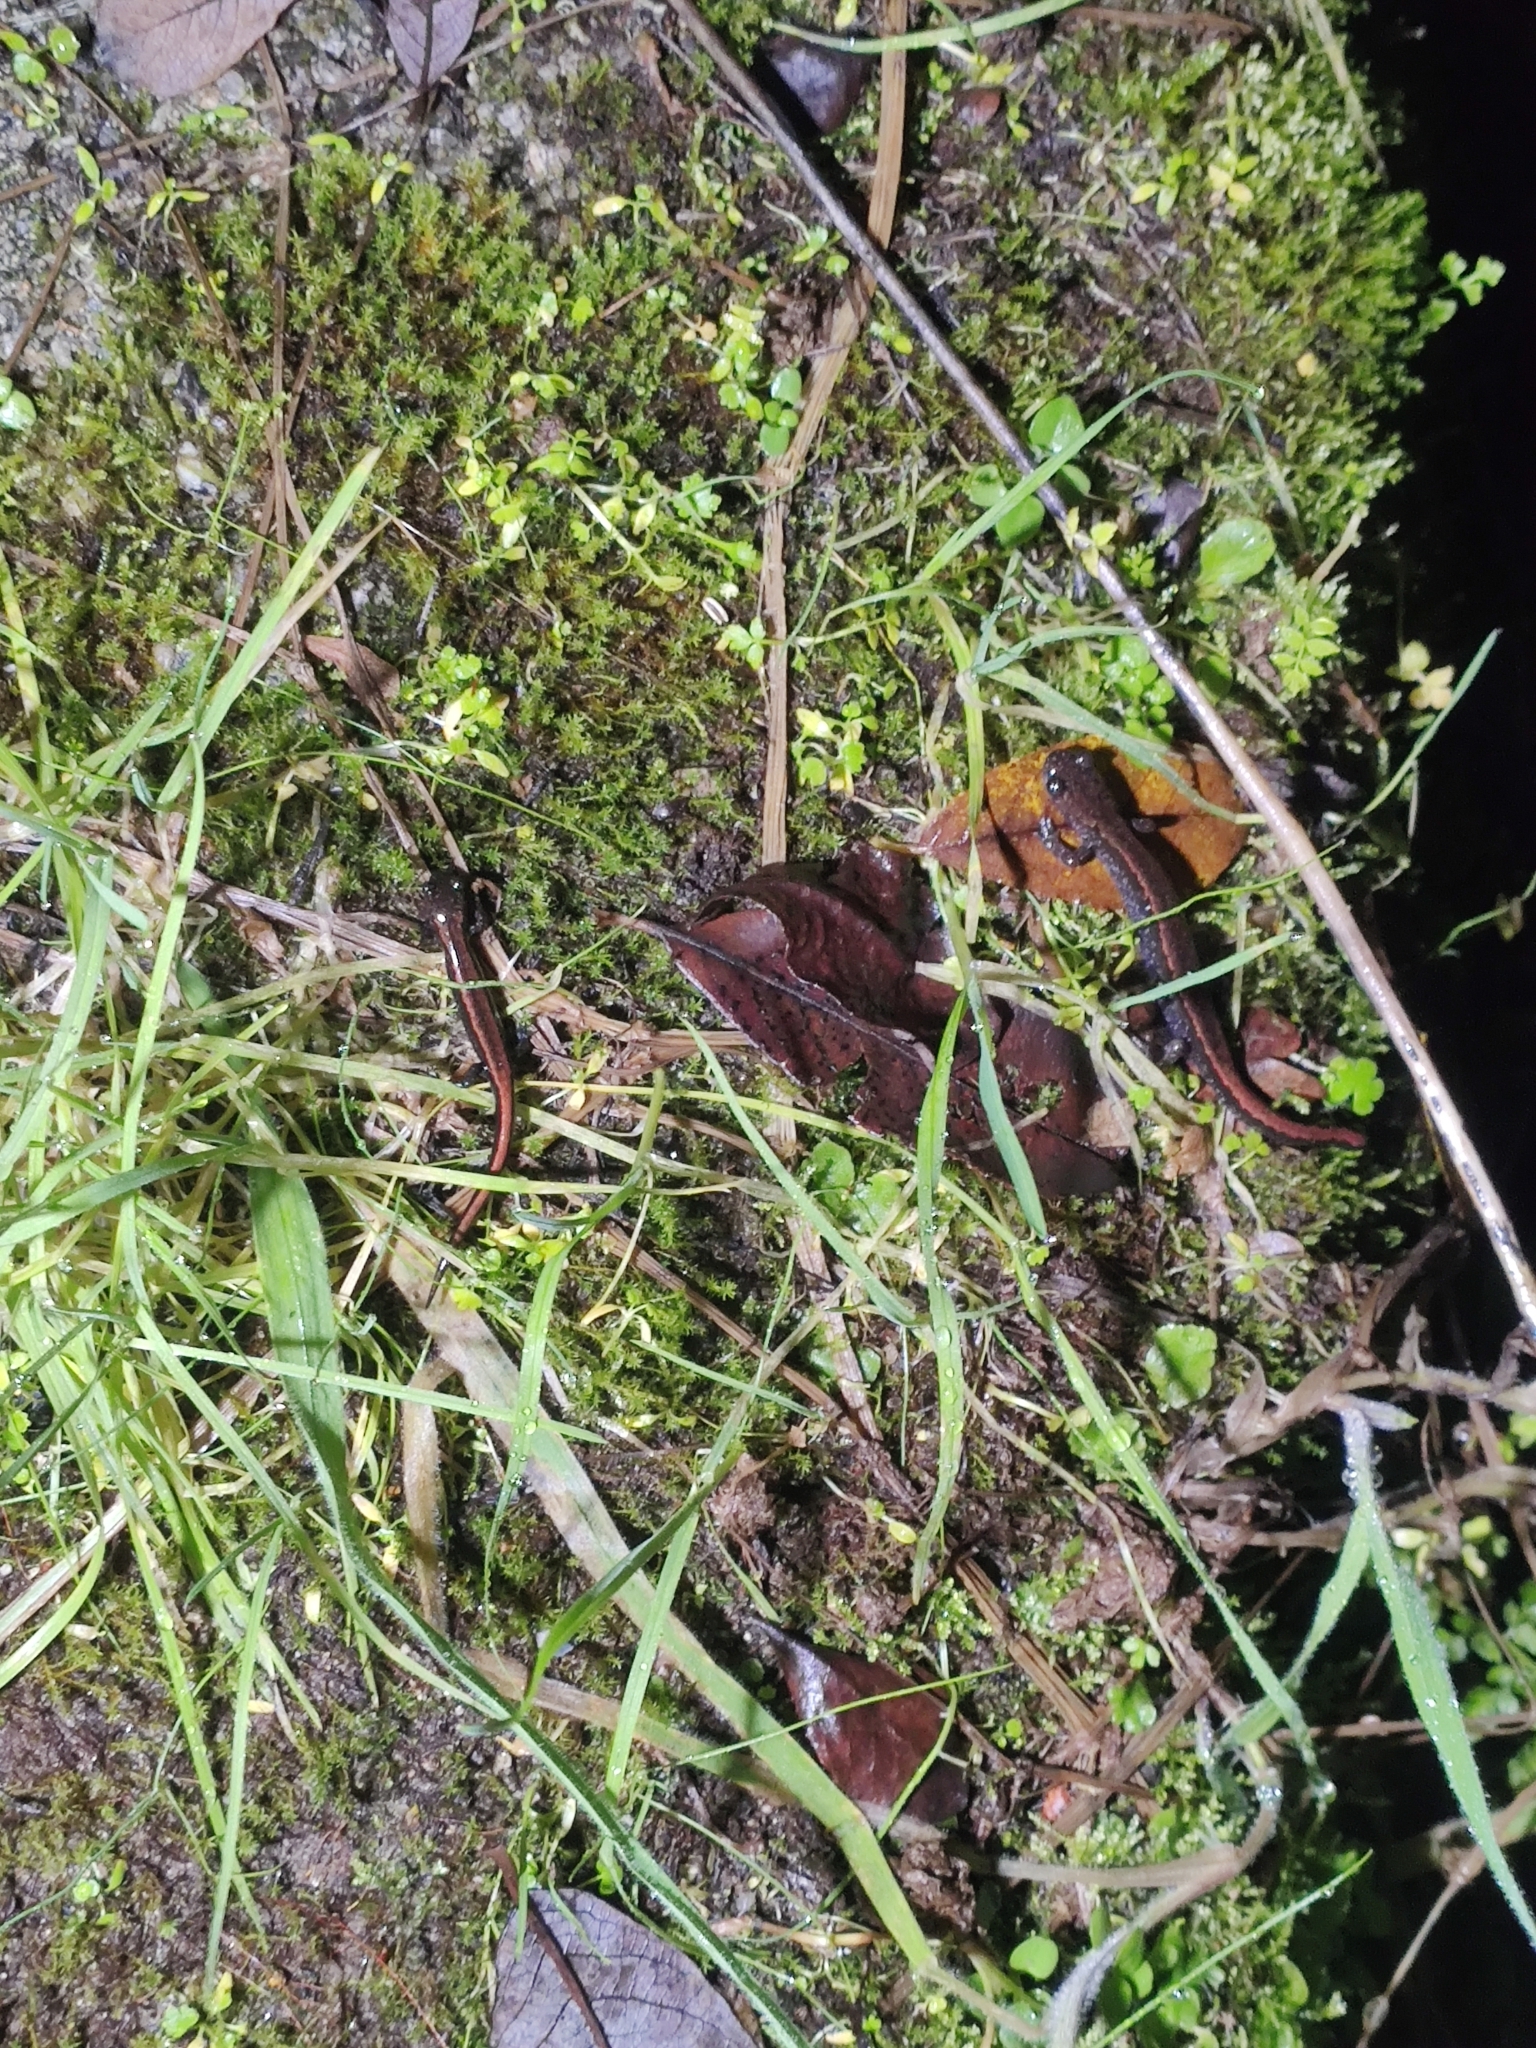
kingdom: Animalia
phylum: Chordata
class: Amphibia
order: Caudata
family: Salamandridae
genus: Chioglossa
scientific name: Chioglossa lusitanica
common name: Gold-striped salamander
